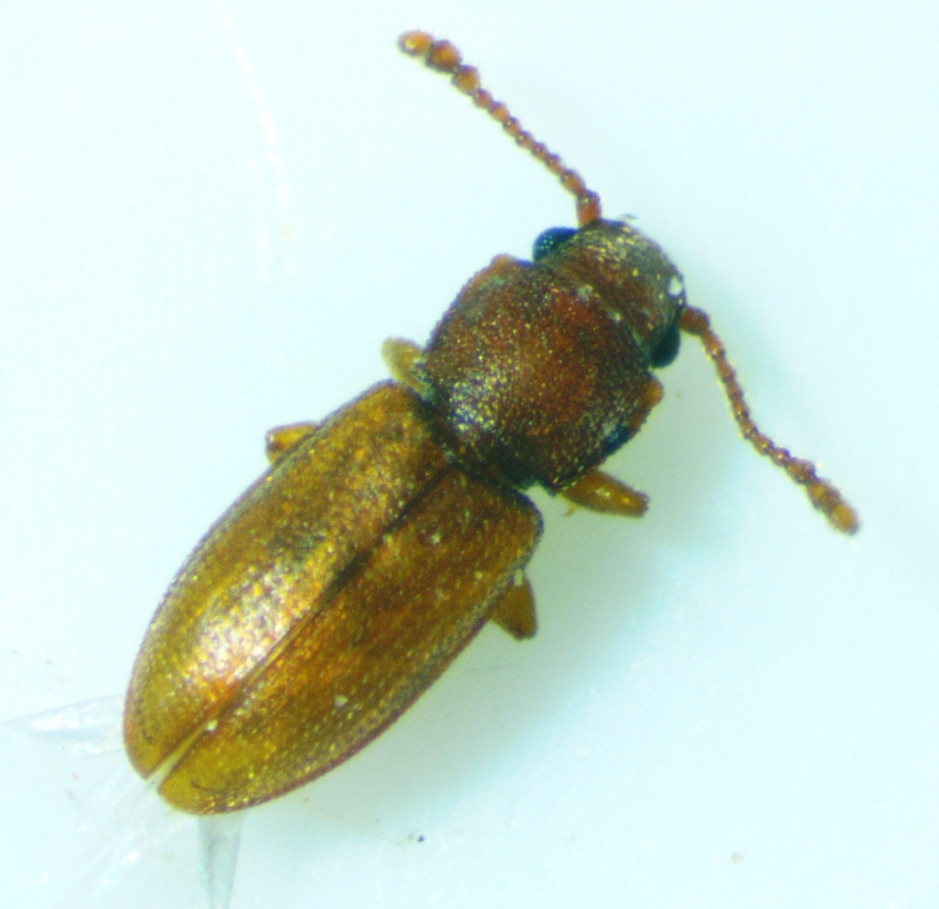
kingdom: Animalia
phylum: Arthropoda
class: Insecta
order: Coleoptera
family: Silvanidae
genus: Ahasverus
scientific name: Ahasverus rectus
